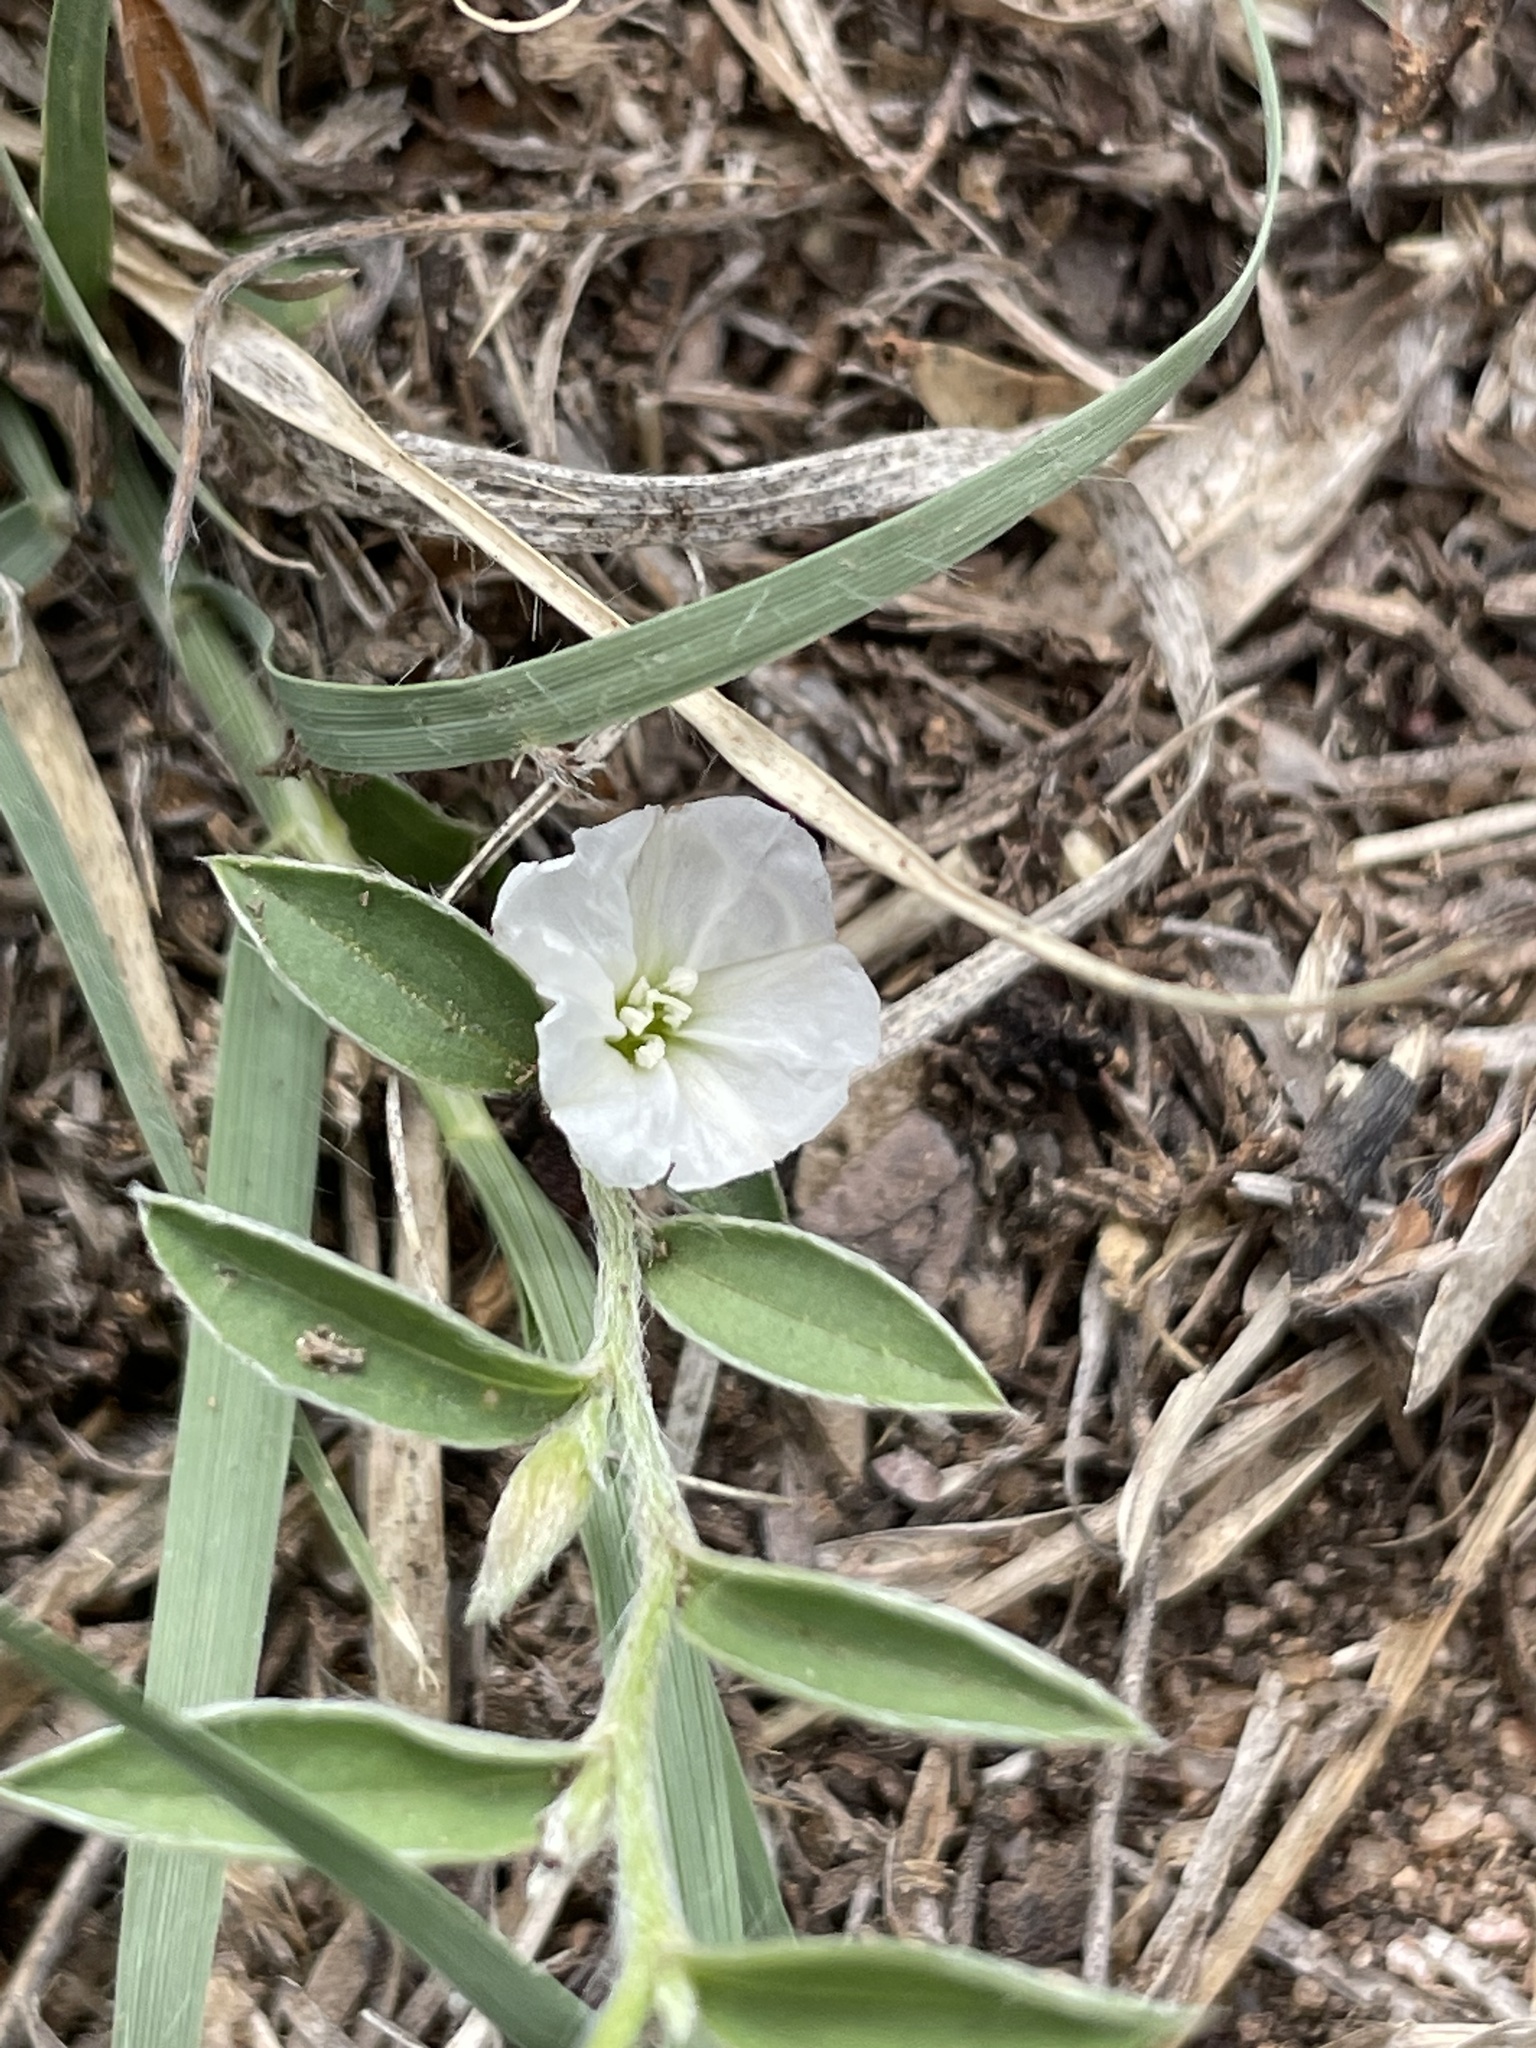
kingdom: Plantae
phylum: Tracheophyta
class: Magnoliopsida
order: Solanales
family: Convolvulaceae
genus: Evolvulus
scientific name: Evolvulus sericeus
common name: Blue dots
